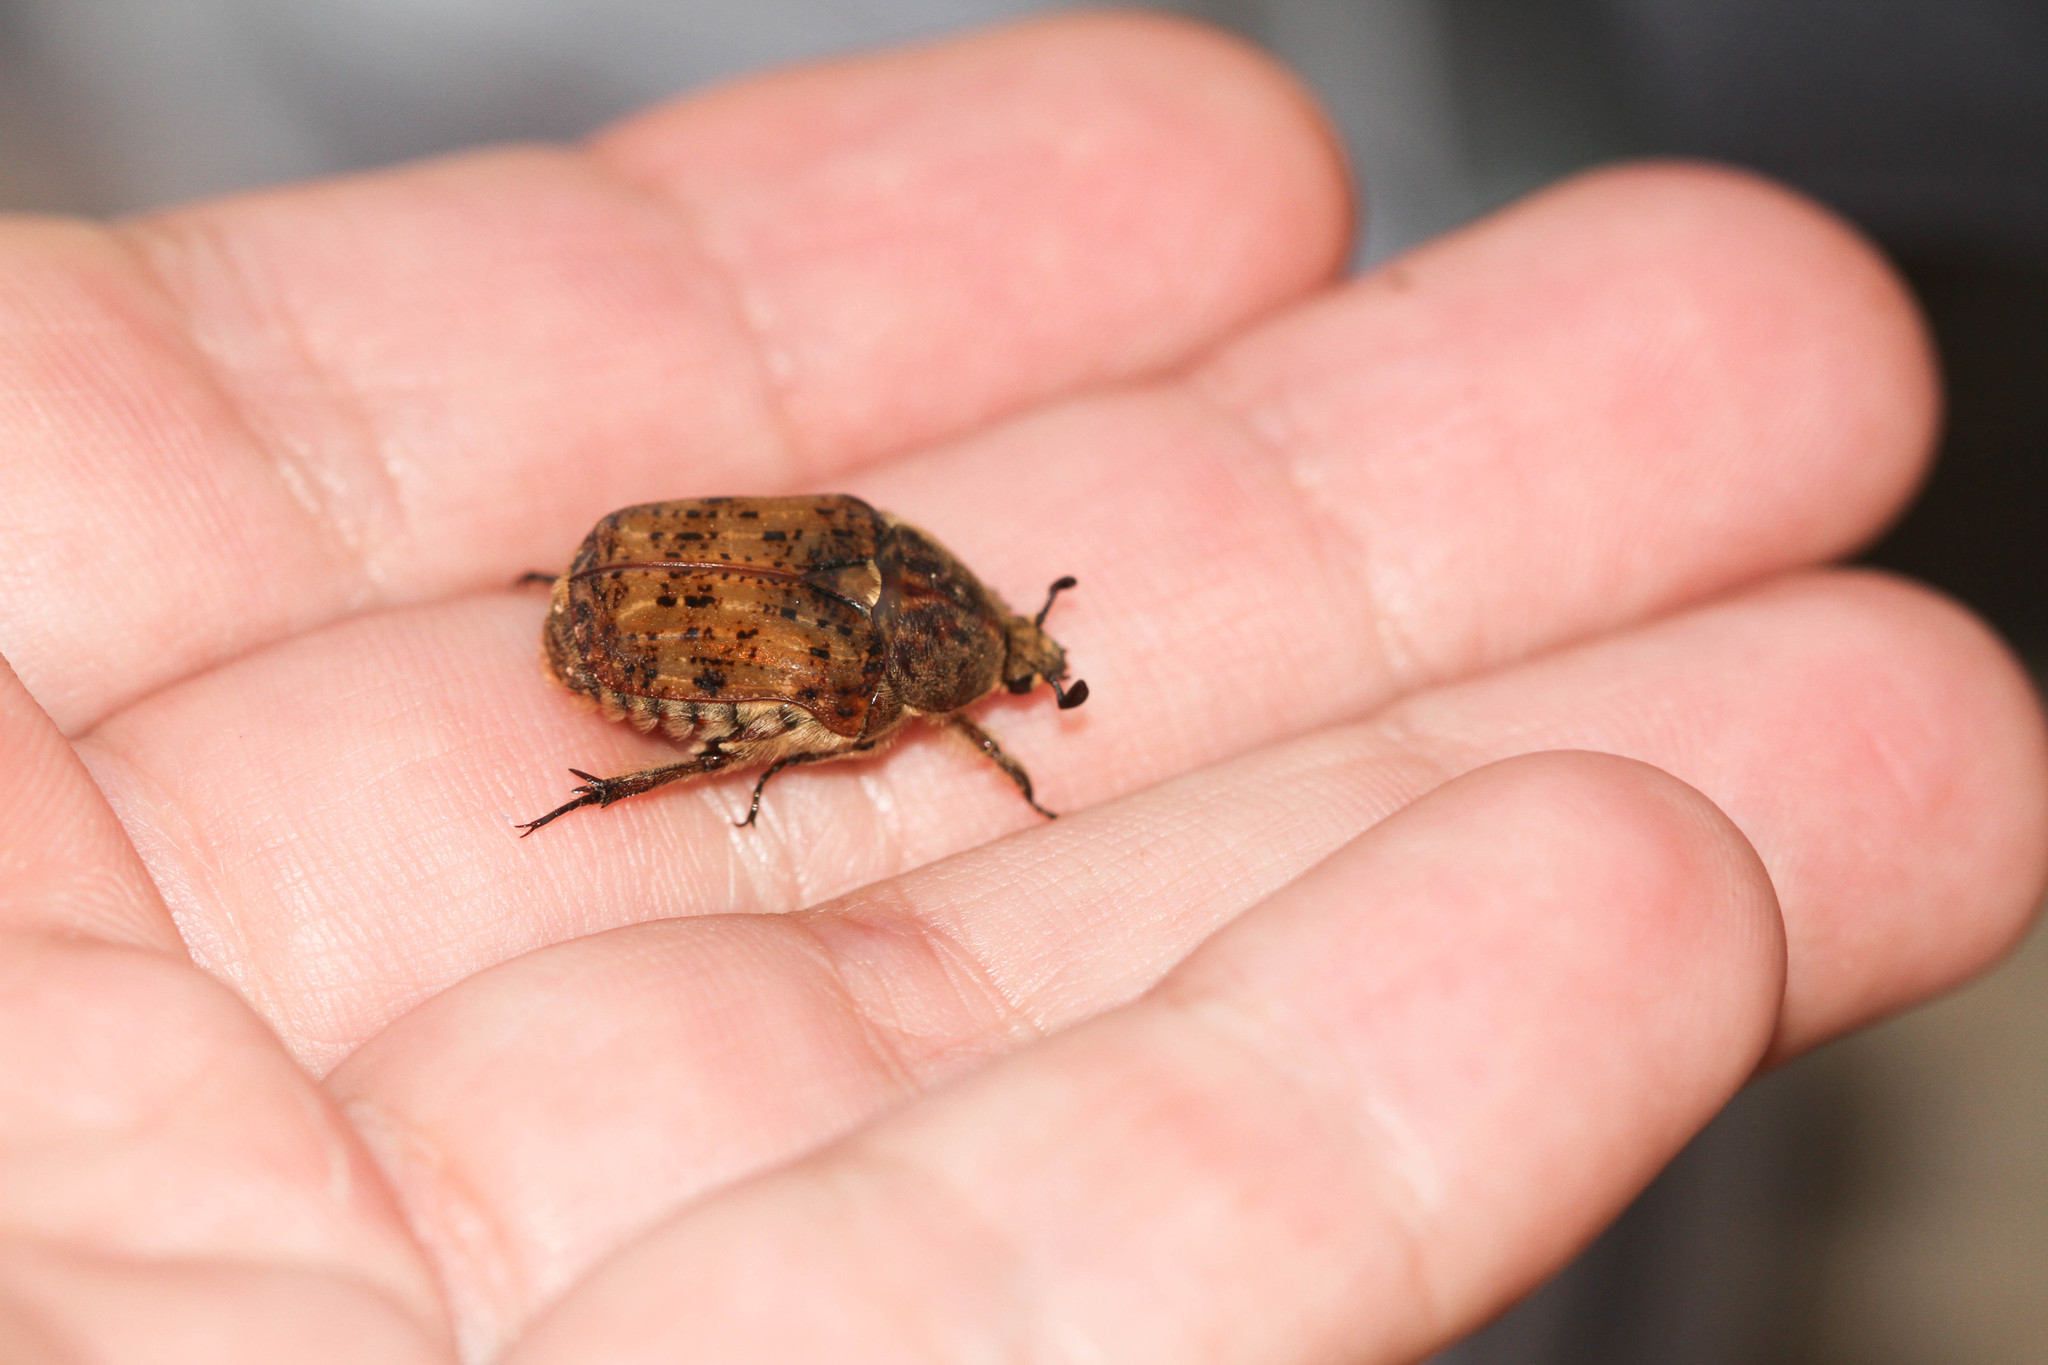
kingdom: Animalia
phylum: Arthropoda
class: Insecta
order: Coleoptera
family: Scarabaeidae
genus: Euphoria
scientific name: Euphoria inda
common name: Bumble flower beetle
